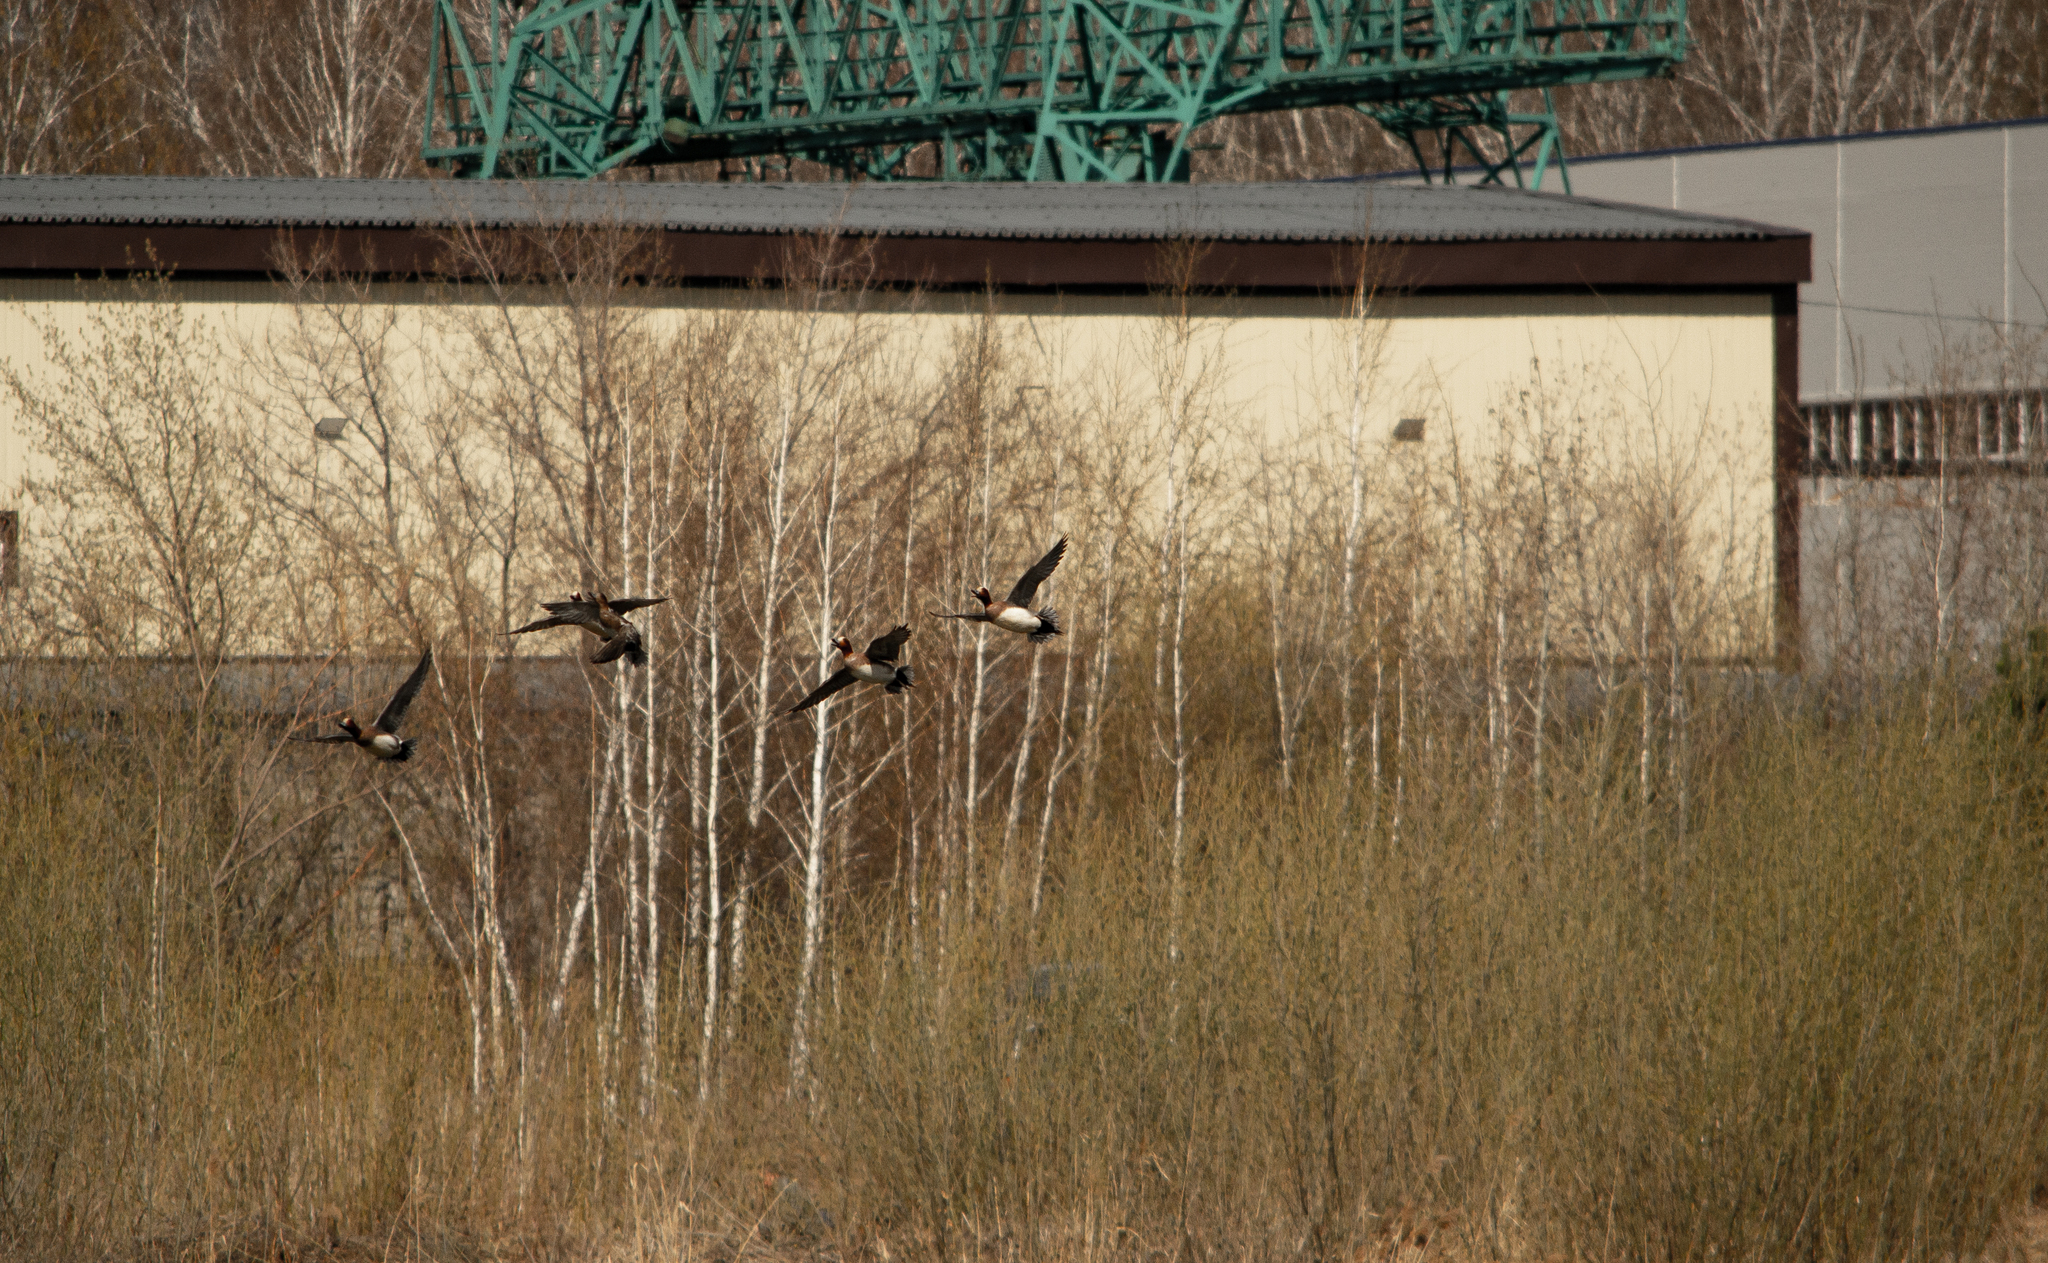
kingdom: Animalia
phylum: Chordata
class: Aves
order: Anseriformes
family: Anatidae
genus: Mareca
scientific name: Mareca penelope
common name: Eurasian wigeon
